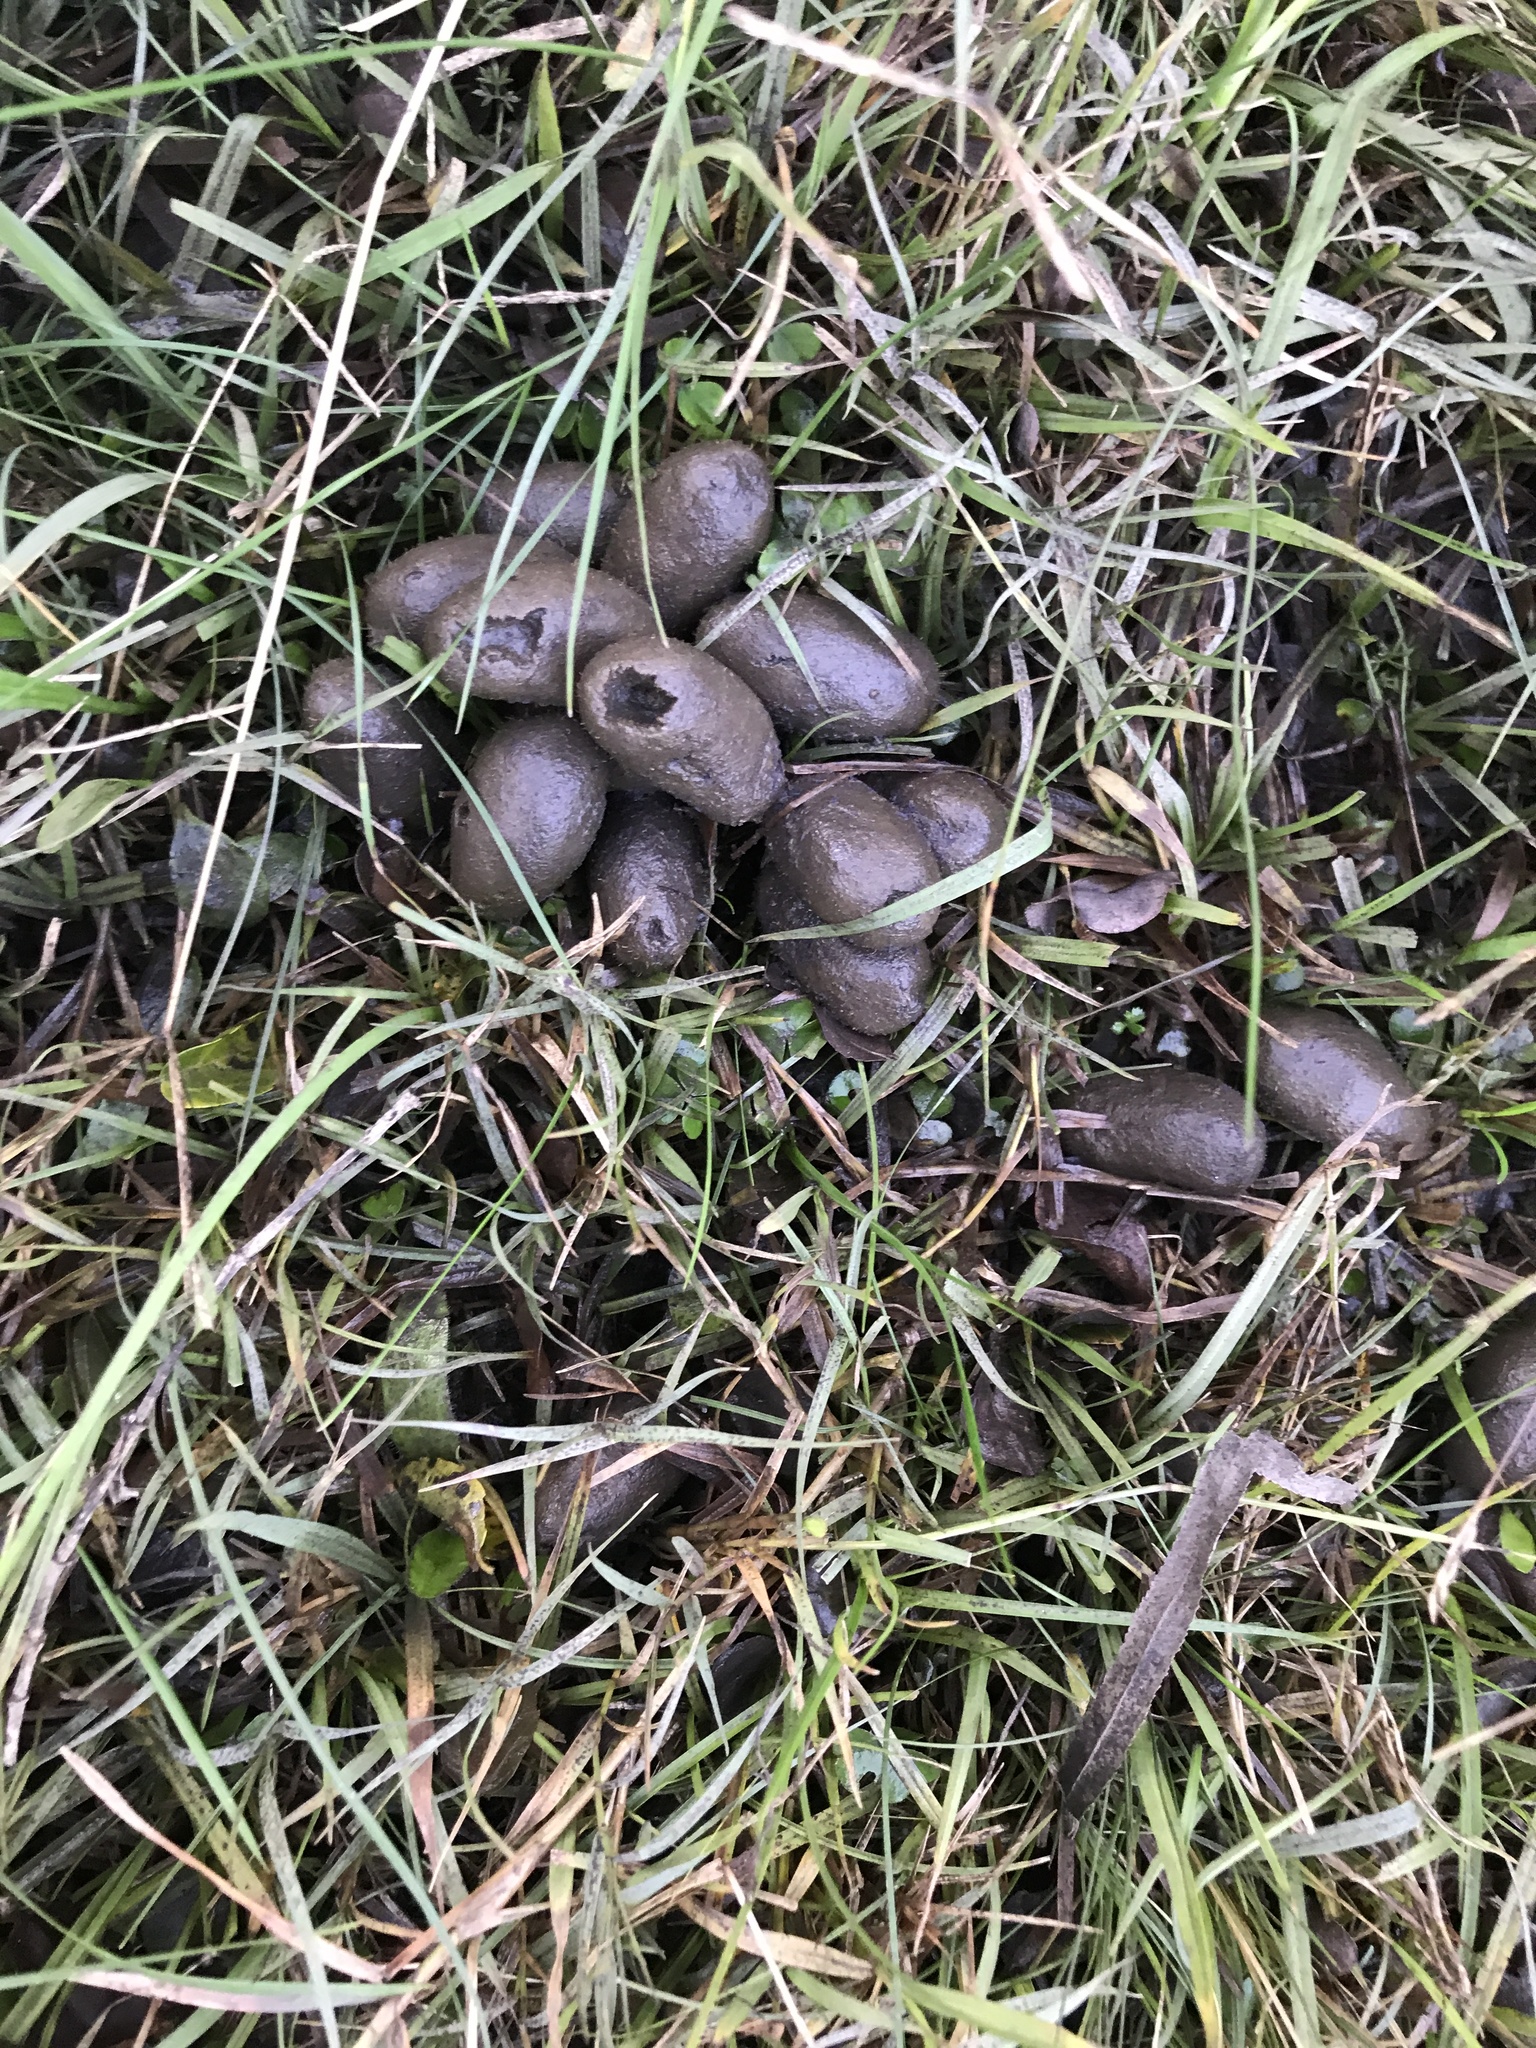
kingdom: Animalia
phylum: Chordata
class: Mammalia
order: Rodentia
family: Caviidae
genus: Hydrochoerus
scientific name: Hydrochoerus hydrochaeris
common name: Capybara
